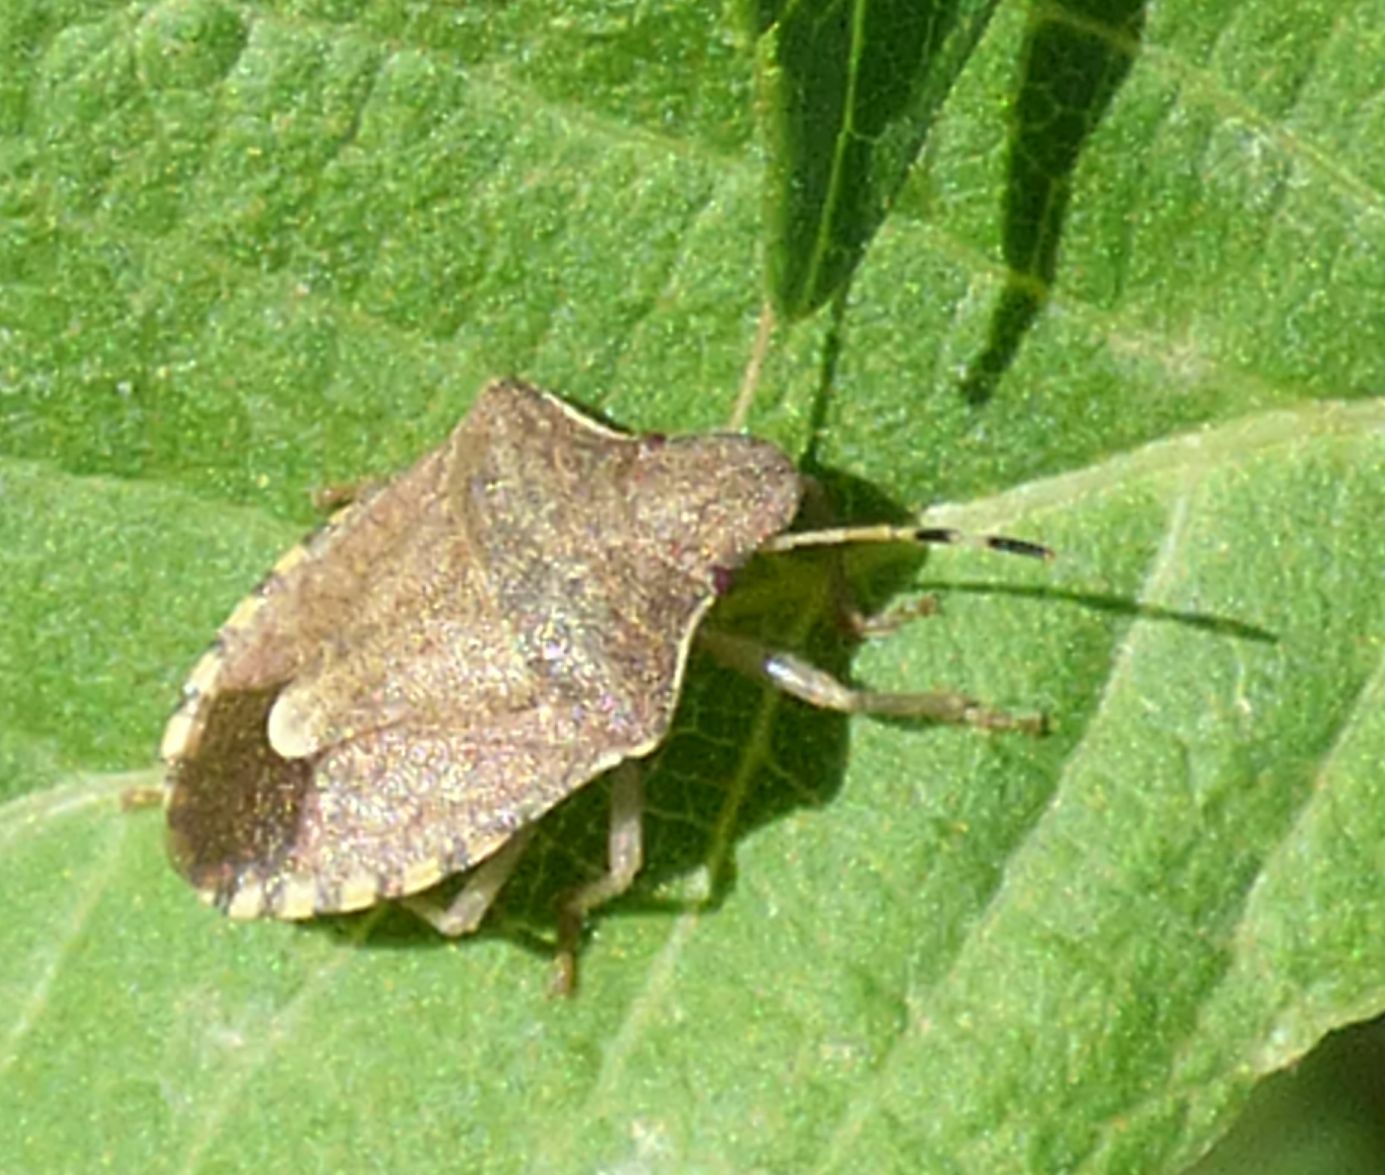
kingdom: Animalia
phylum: Arthropoda
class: Insecta
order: Hemiptera
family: Pentatomidae
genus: Holcostethus
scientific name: Holcostethus strictus
